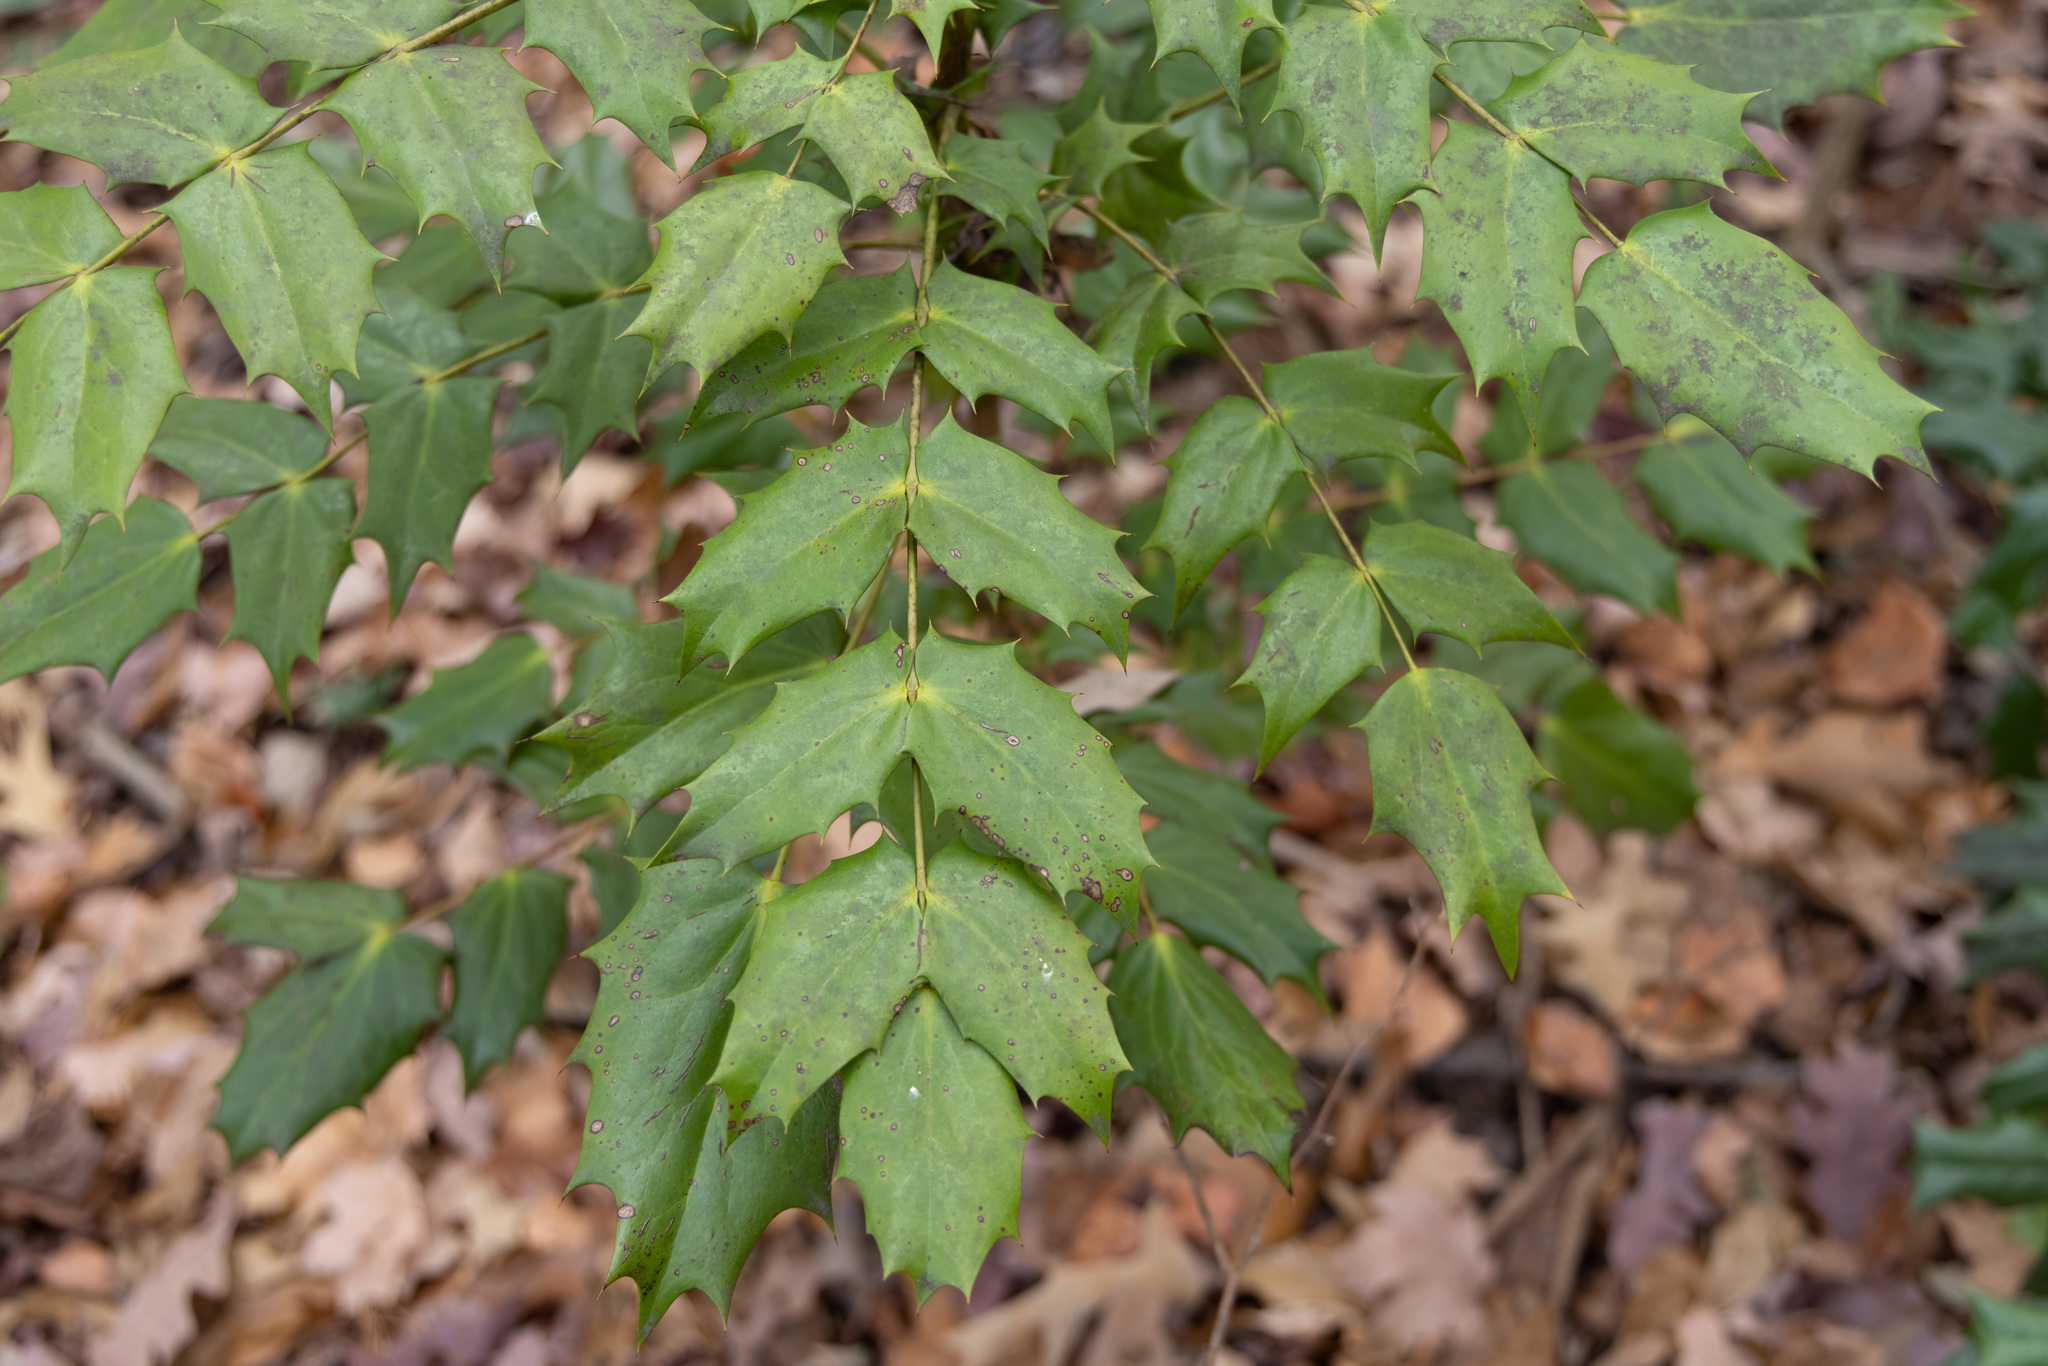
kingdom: Plantae
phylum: Tracheophyta
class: Magnoliopsida
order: Ranunculales
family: Berberidaceae
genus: Mahonia
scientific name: Mahonia bealei
